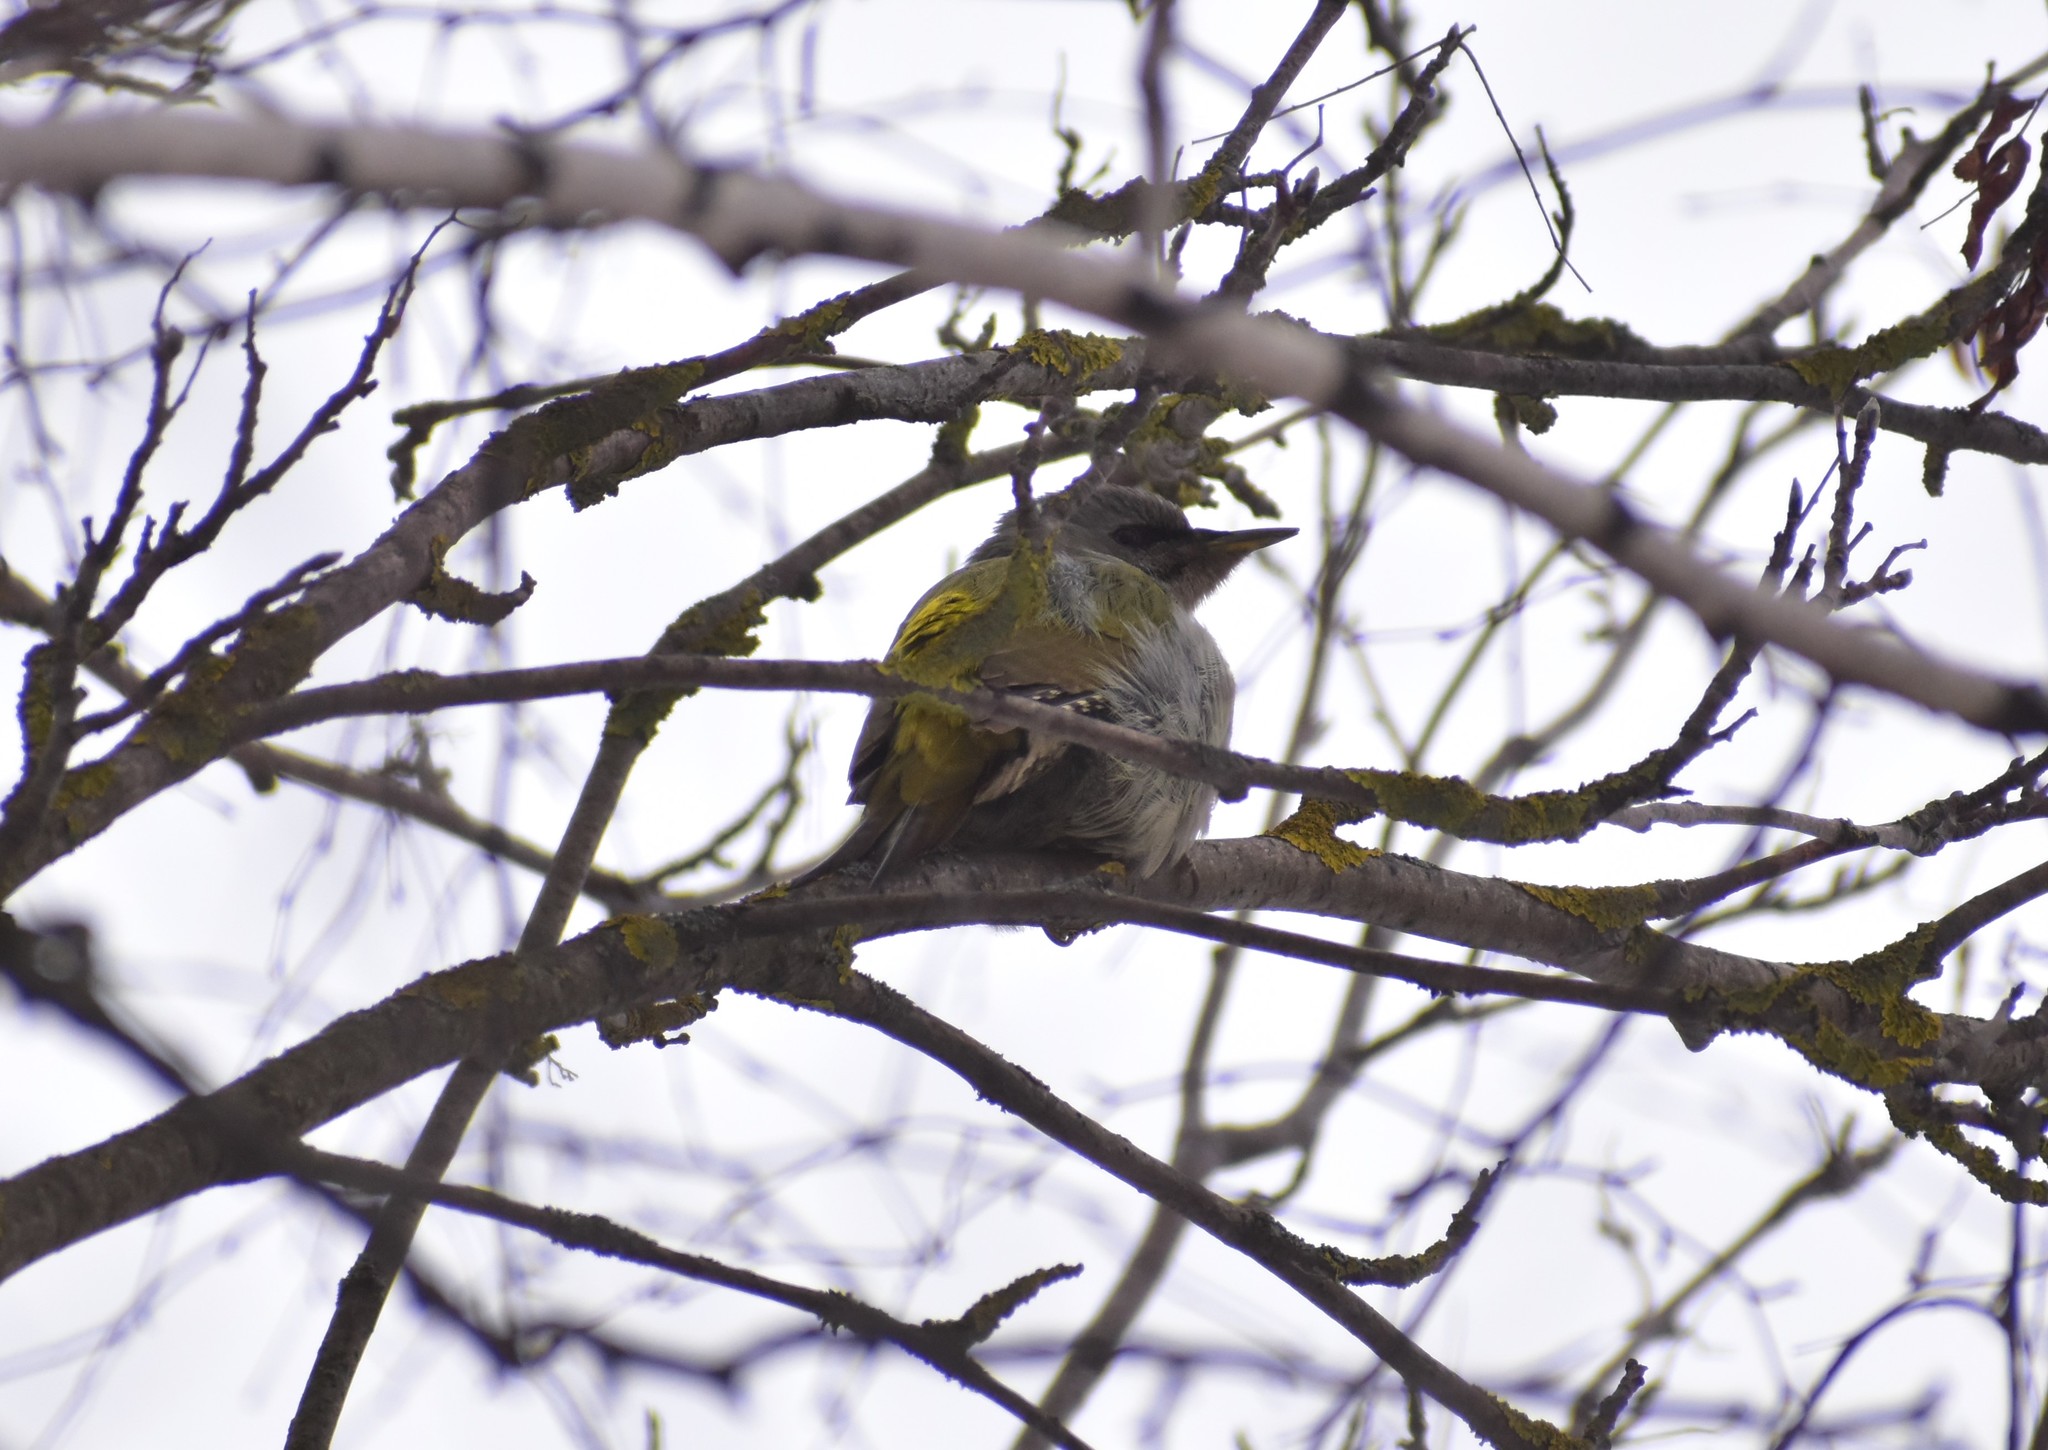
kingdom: Animalia
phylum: Chordata
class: Aves
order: Piciformes
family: Picidae
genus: Picus
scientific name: Picus canus
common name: Grey-headed woodpecker
